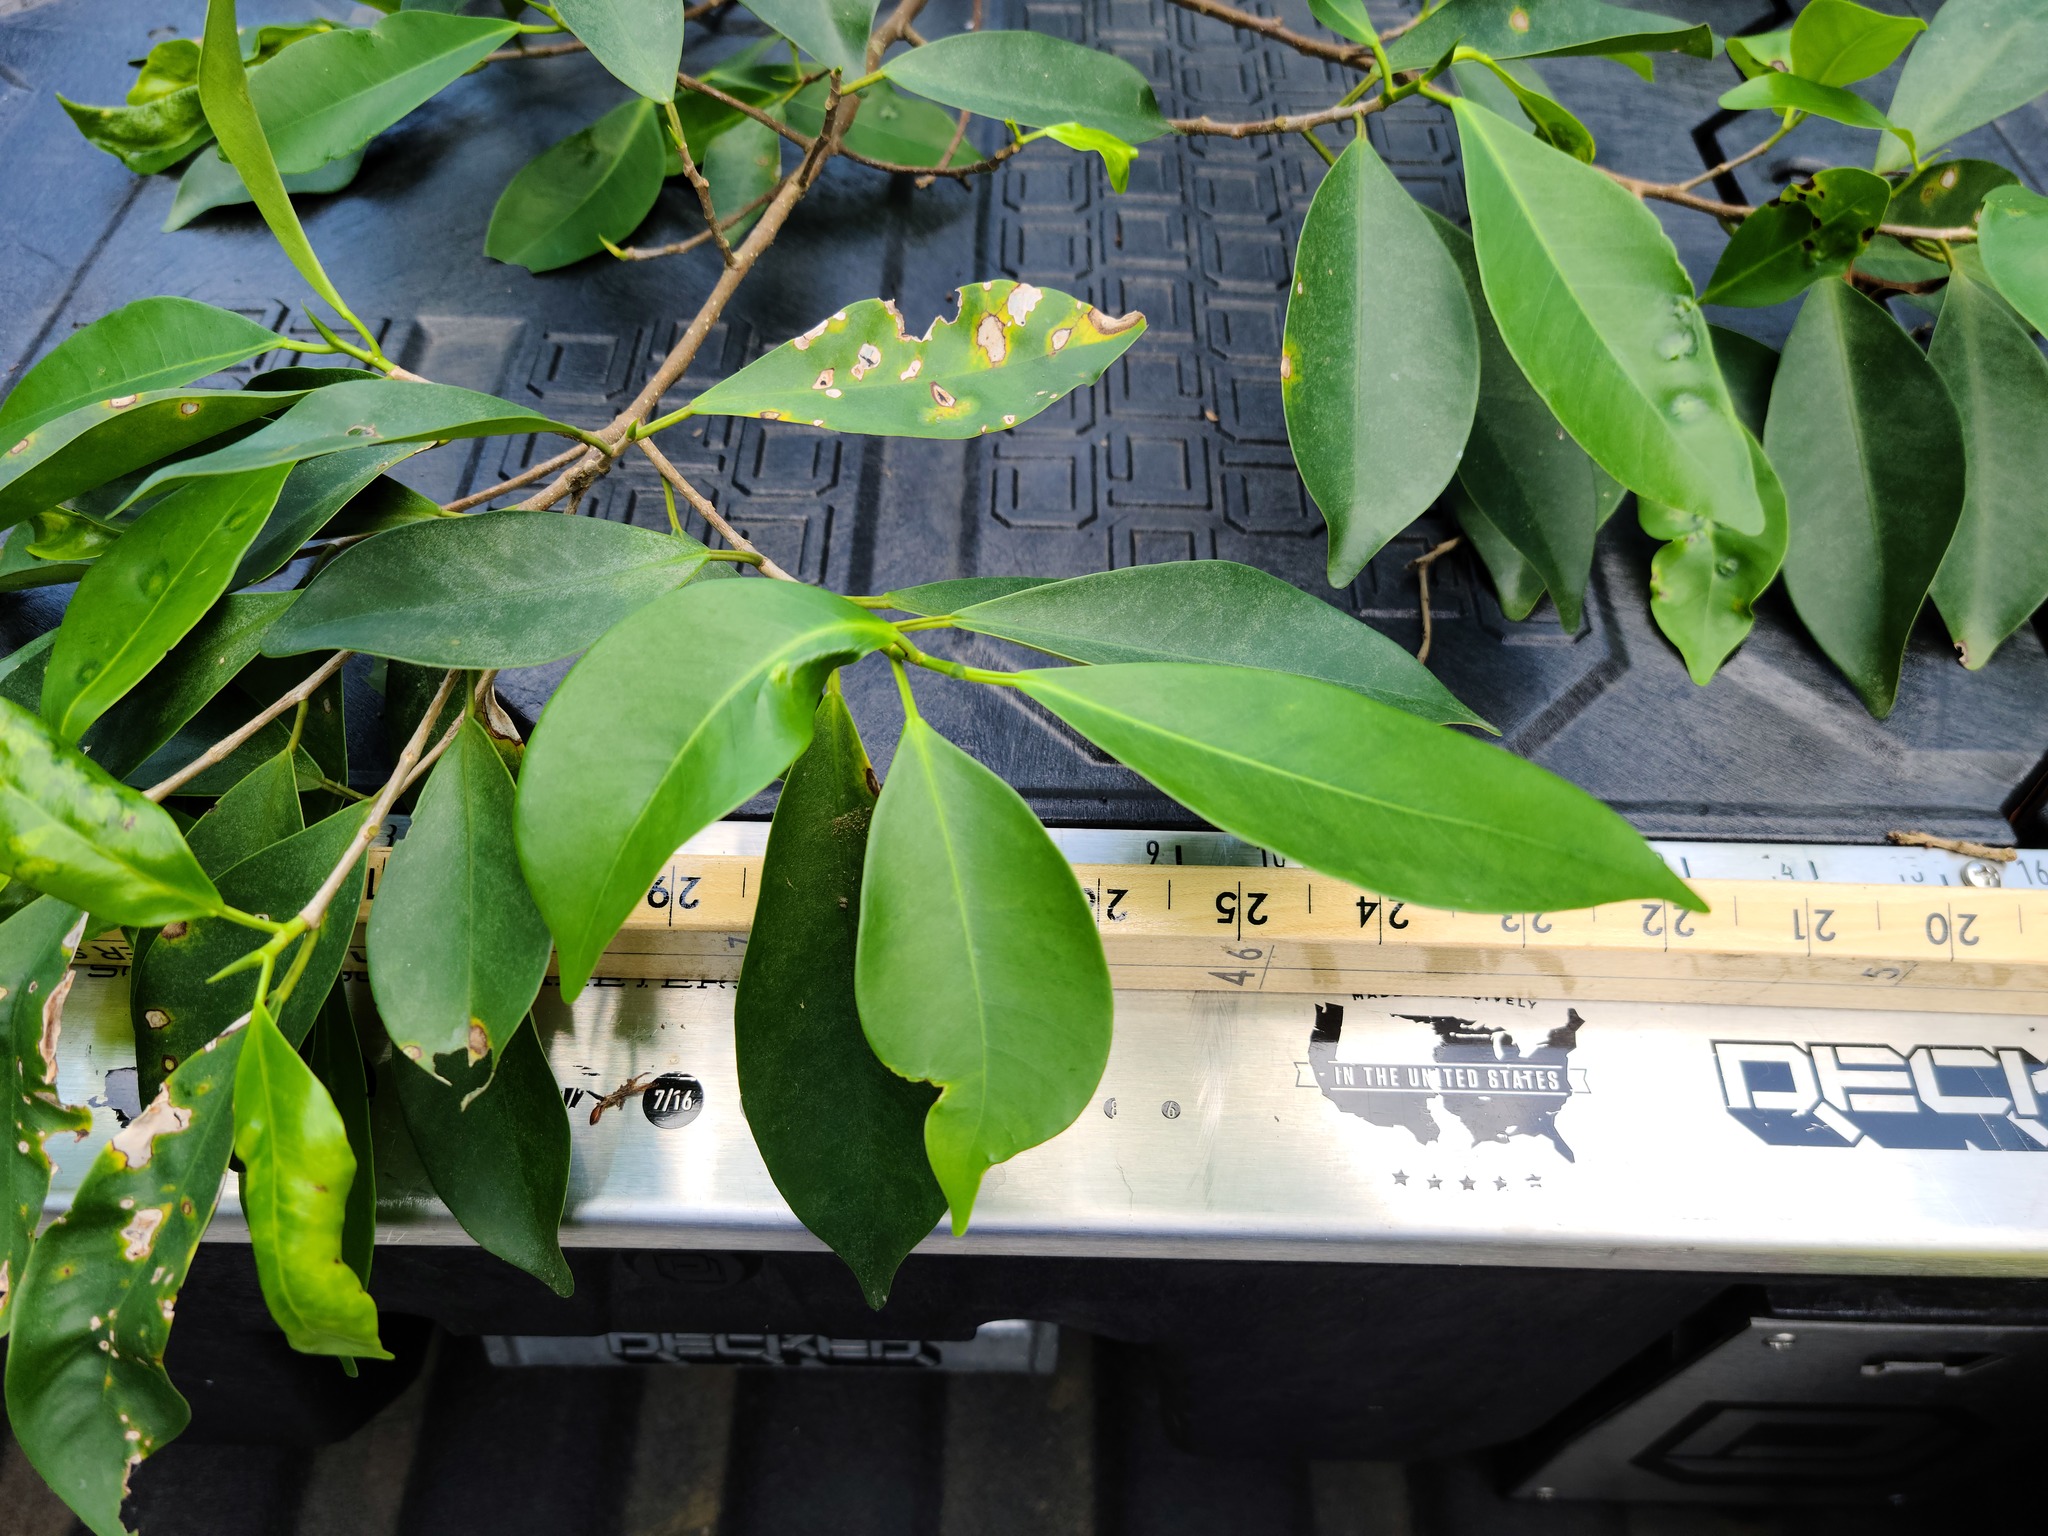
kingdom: Plantae
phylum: Tracheophyta
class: Magnoliopsida
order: Rosales
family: Moraceae
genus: Ficus
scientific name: Ficus microcarpa
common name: Chinese banyan
